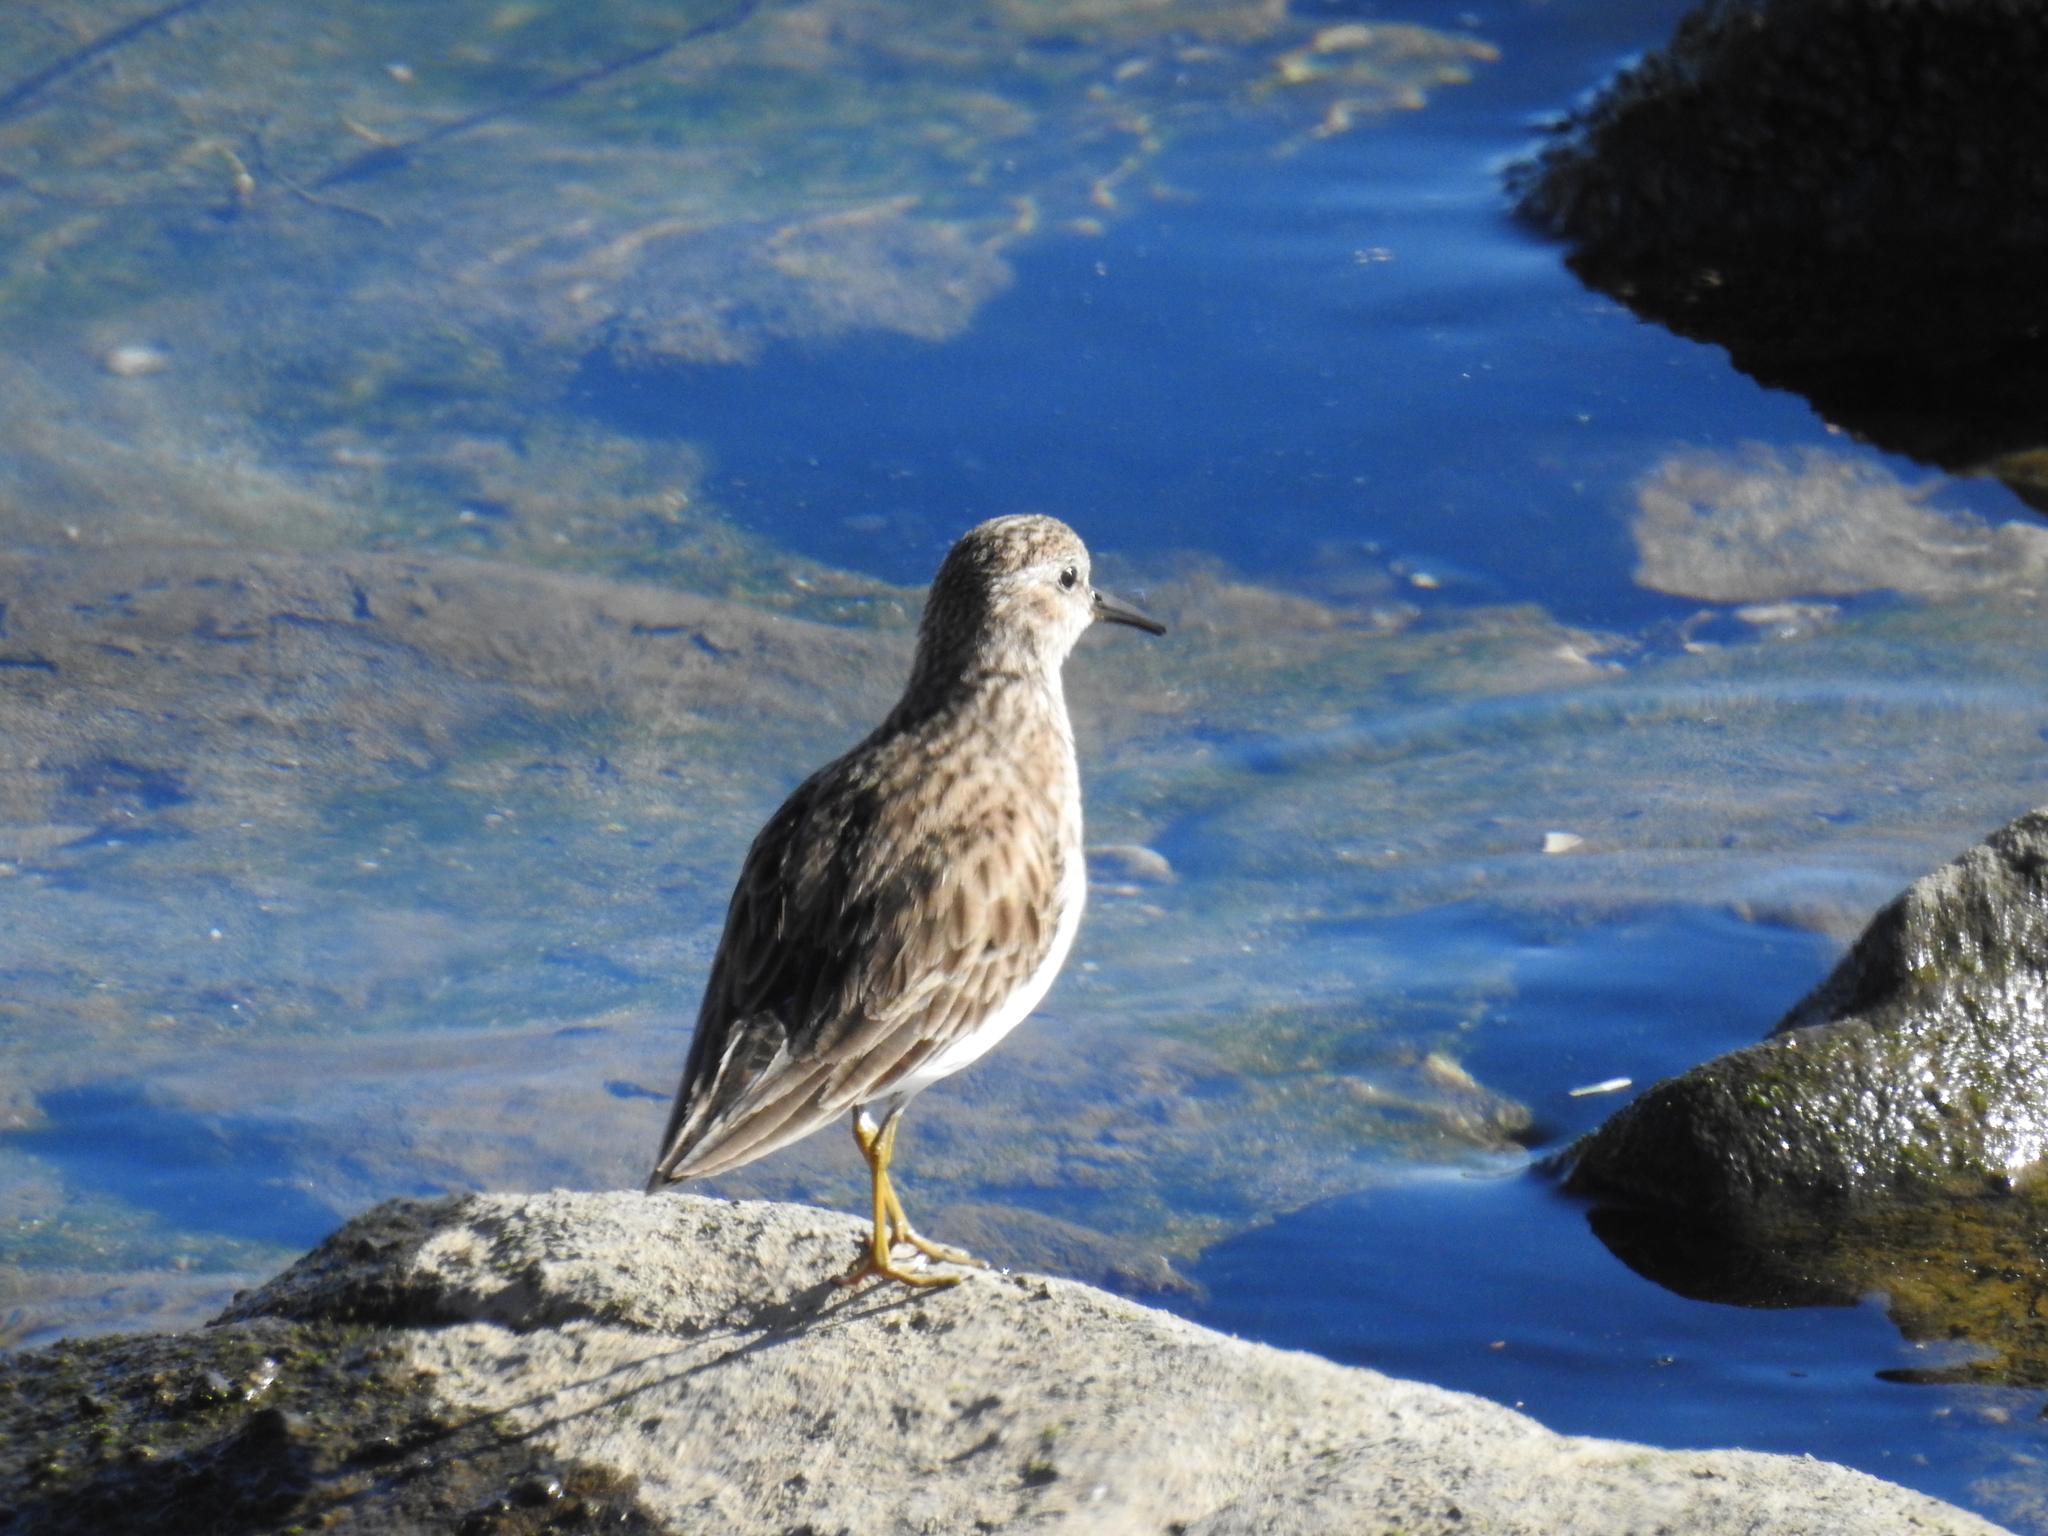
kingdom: Animalia
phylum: Chordata
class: Aves
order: Charadriiformes
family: Scolopacidae
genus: Calidris
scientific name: Calidris minutilla
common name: Least sandpiper
